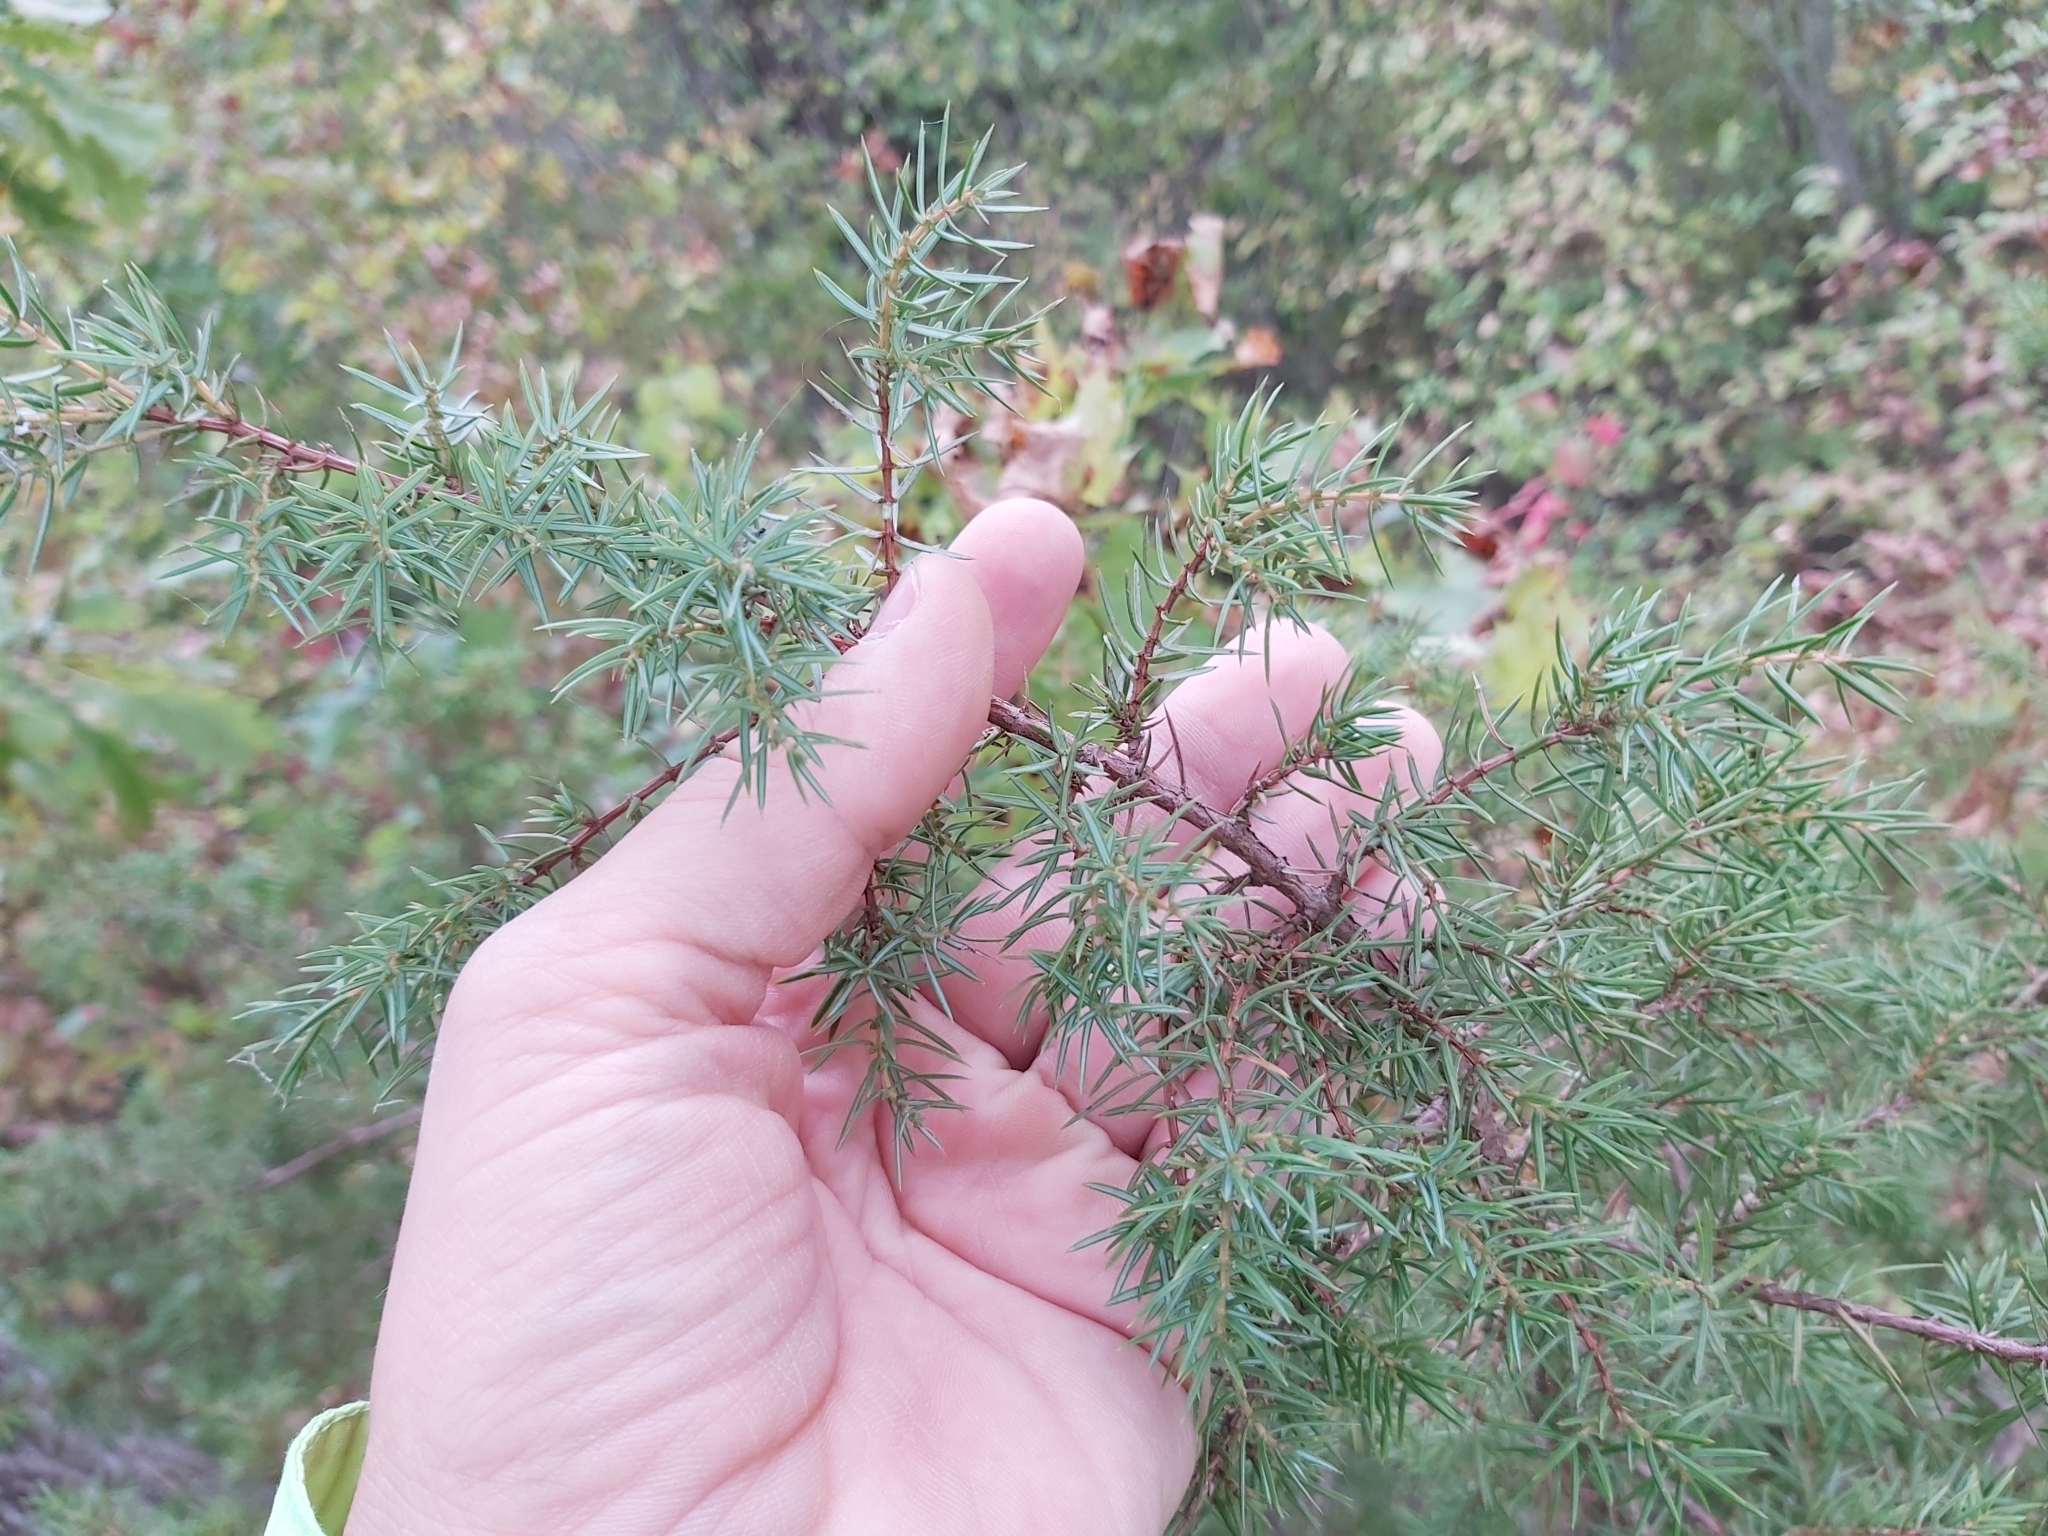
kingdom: Plantae
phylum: Tracheophyta
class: Pinopsida
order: Pinales
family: Cupressaceae
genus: Juniperus
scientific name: Juniperus communis
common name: Common juniper
